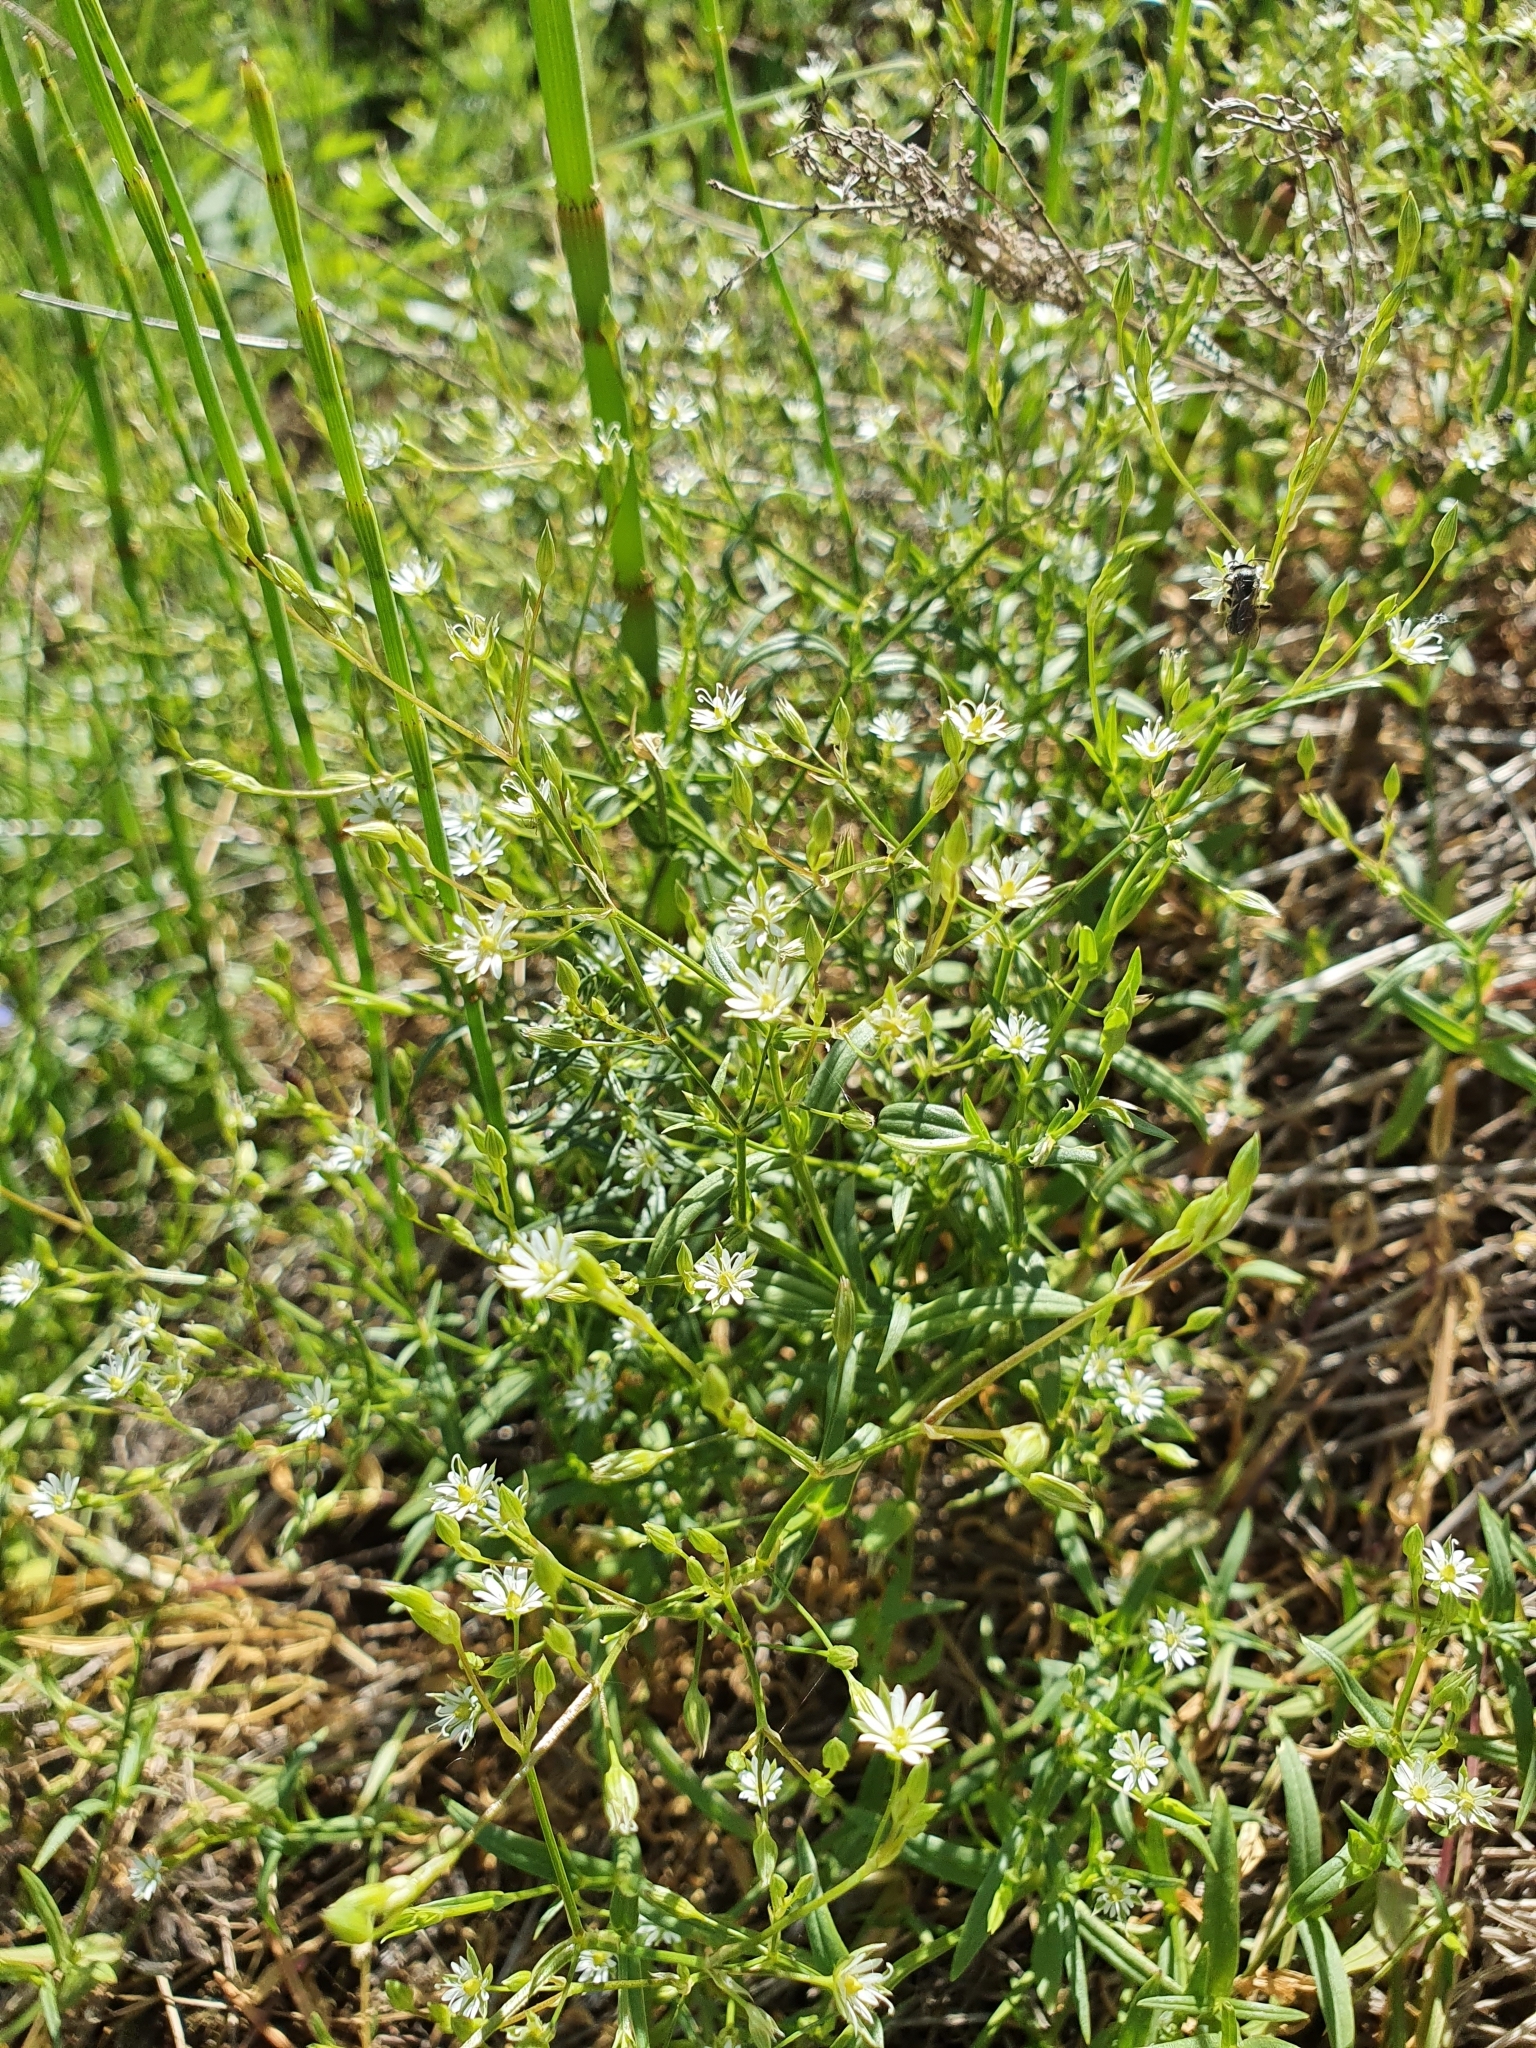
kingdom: Plantae
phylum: Tracheophyta
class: Magnoliopsida
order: Caryophyllales
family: Caryophyllaceae
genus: Stellaria
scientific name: Stellaria graminea
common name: Grass-like starwort
